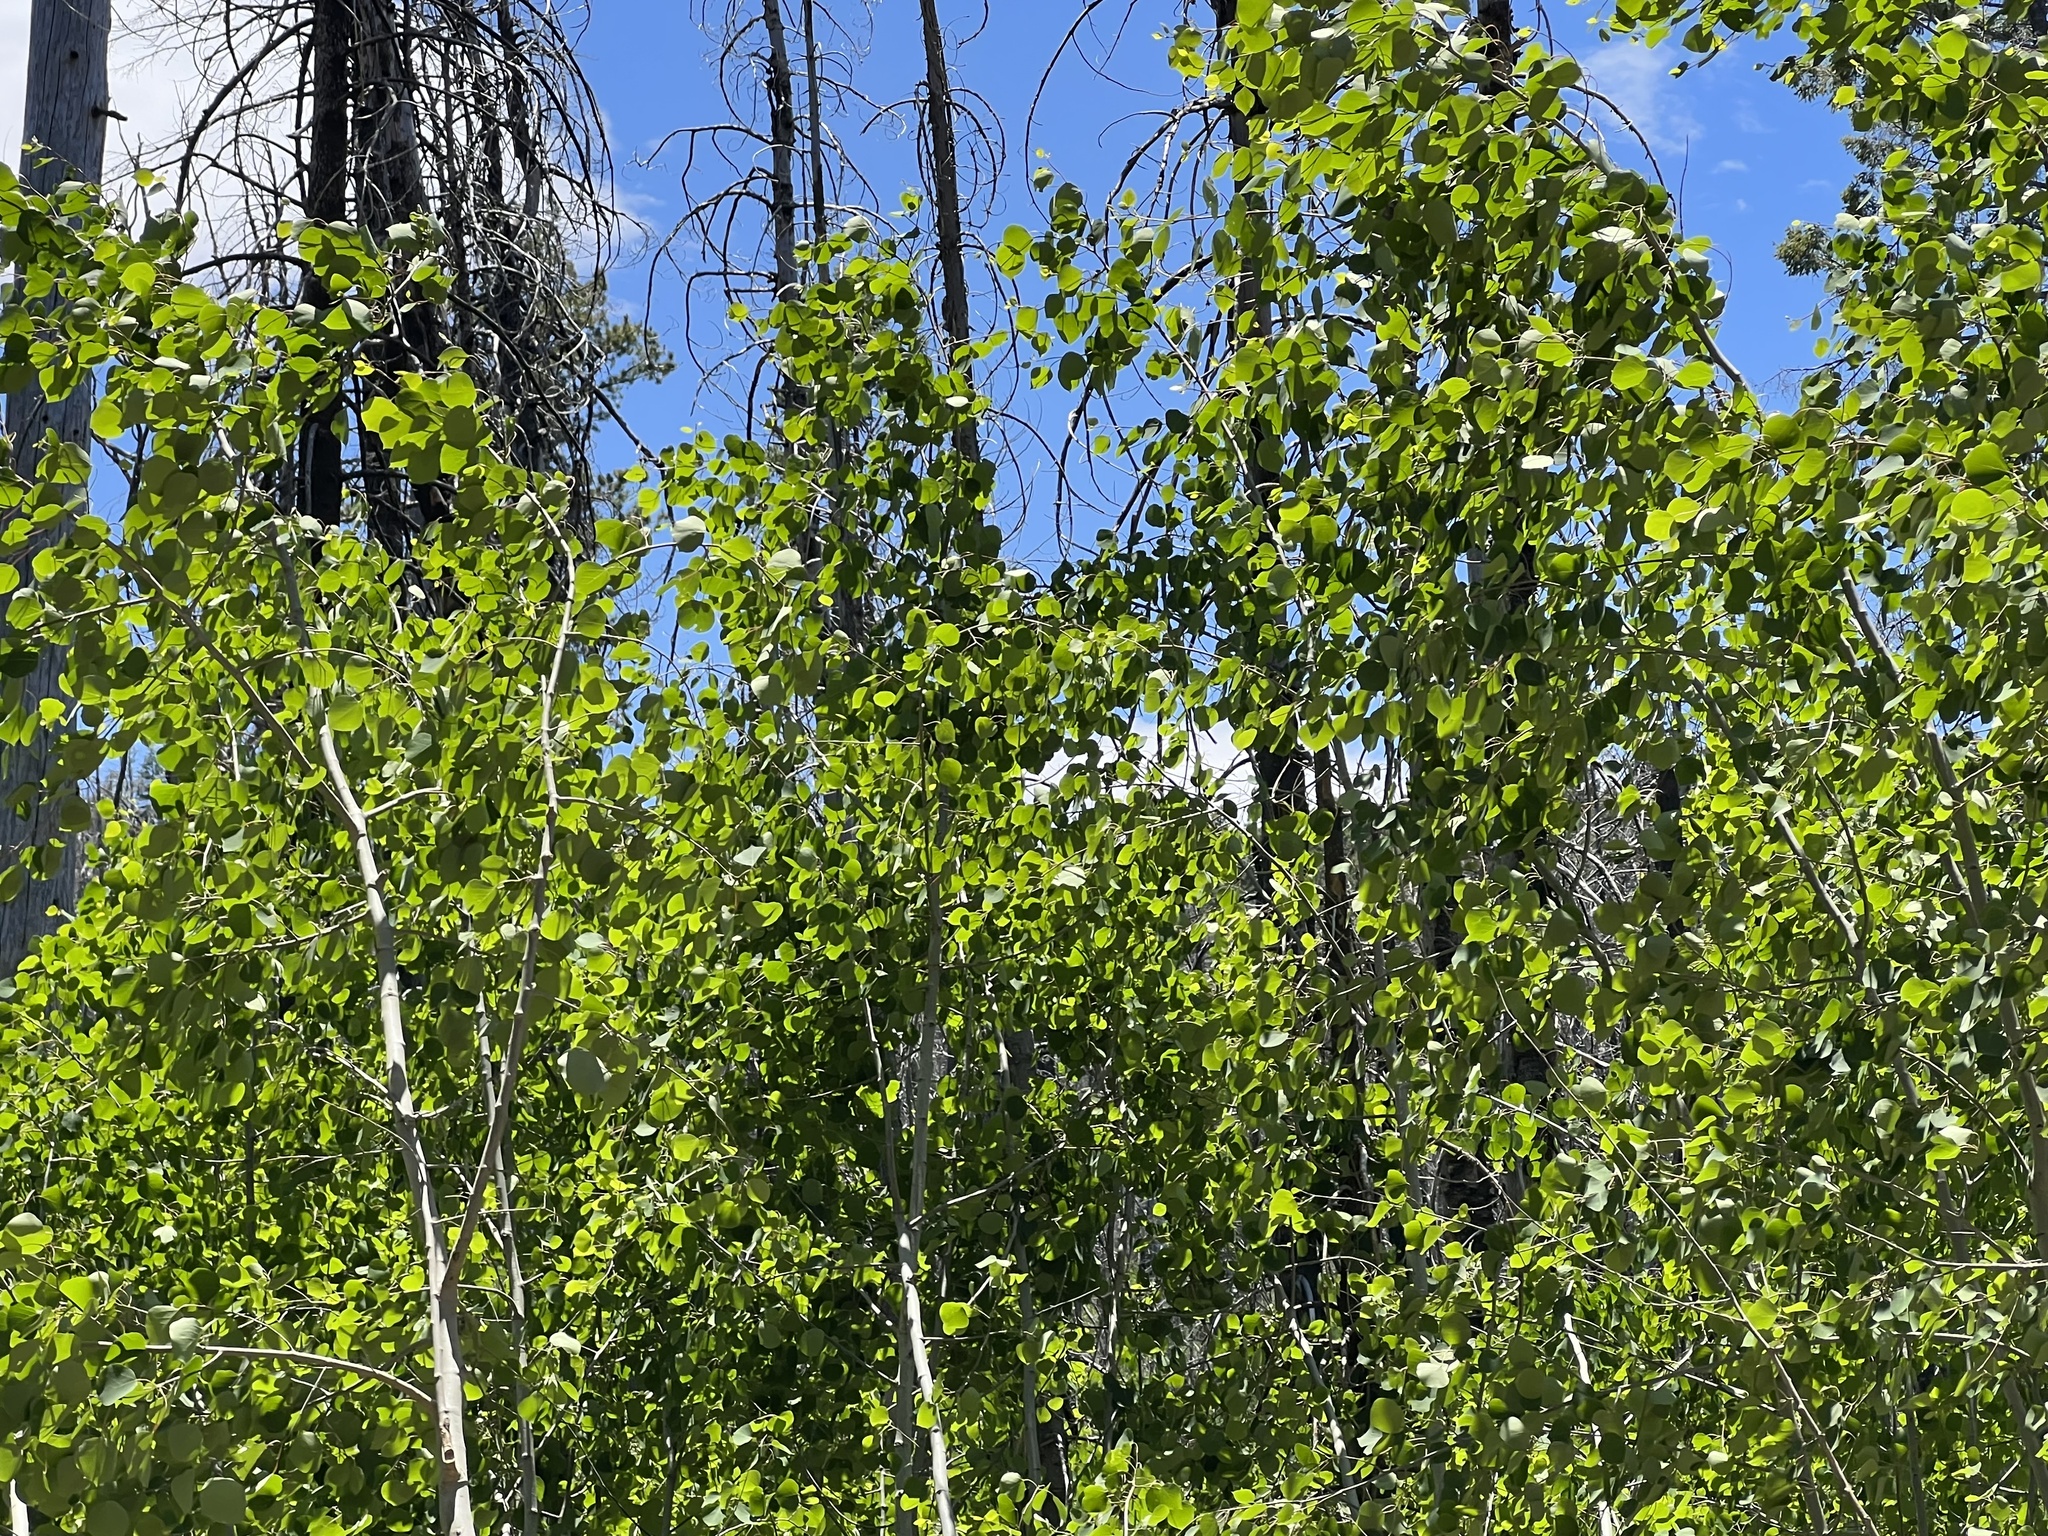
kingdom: Plantae
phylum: Tracheophyta
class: Magnoliopsida
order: Malpighiales
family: Salicaceae
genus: Populus
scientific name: Populus tremuloides
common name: Quaking aspen
